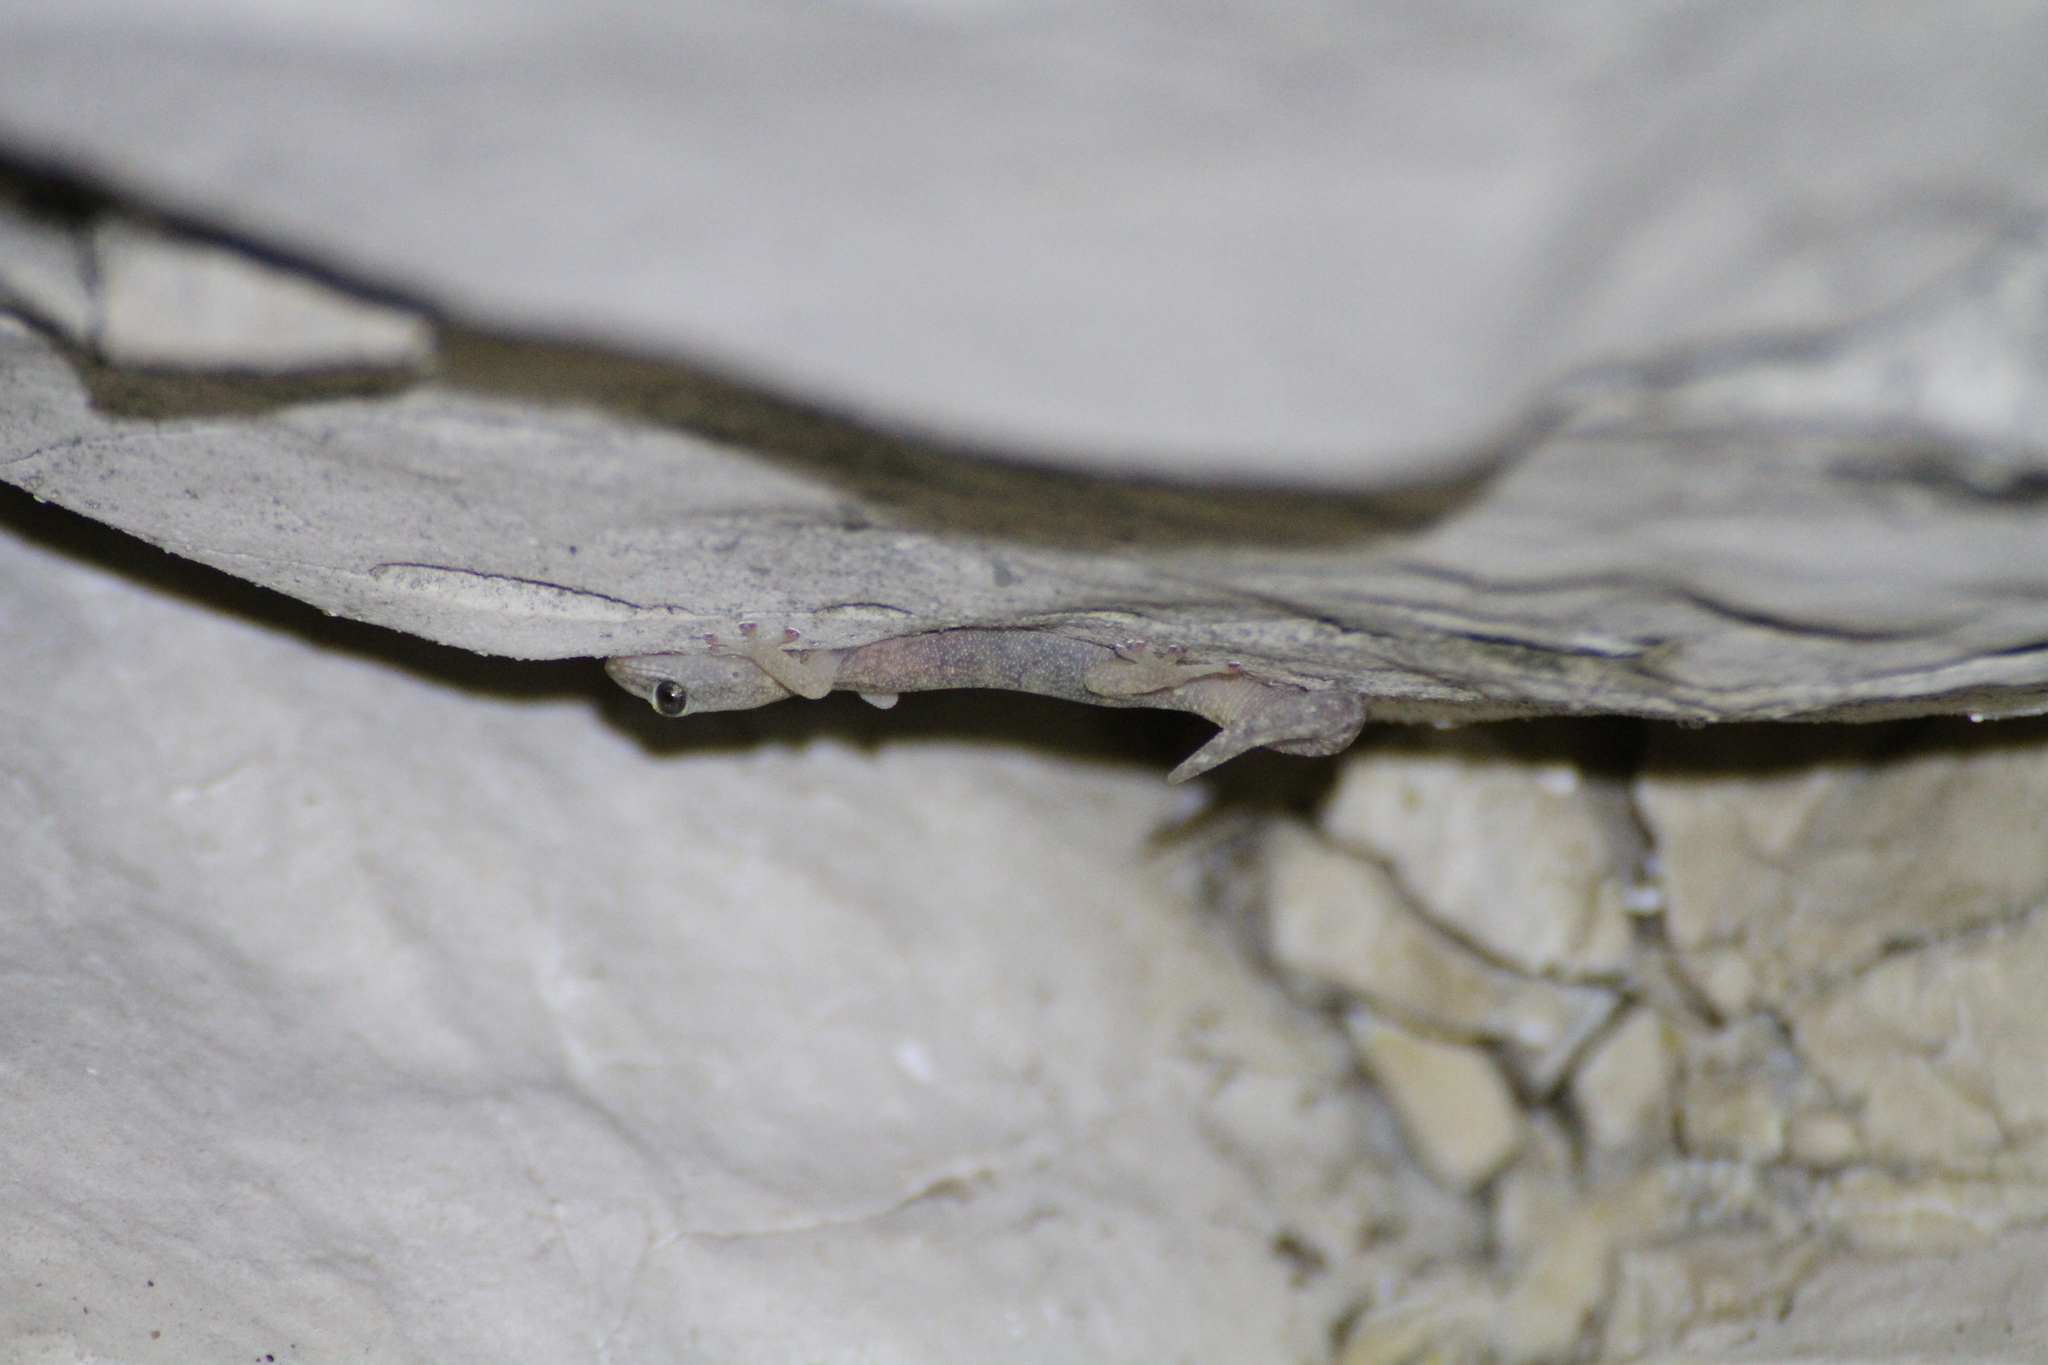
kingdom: Animalia
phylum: Chordata
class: Squamata
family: Sphaerodactylidae
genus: Euleptes
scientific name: Euleptes europaea
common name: English common name not available
